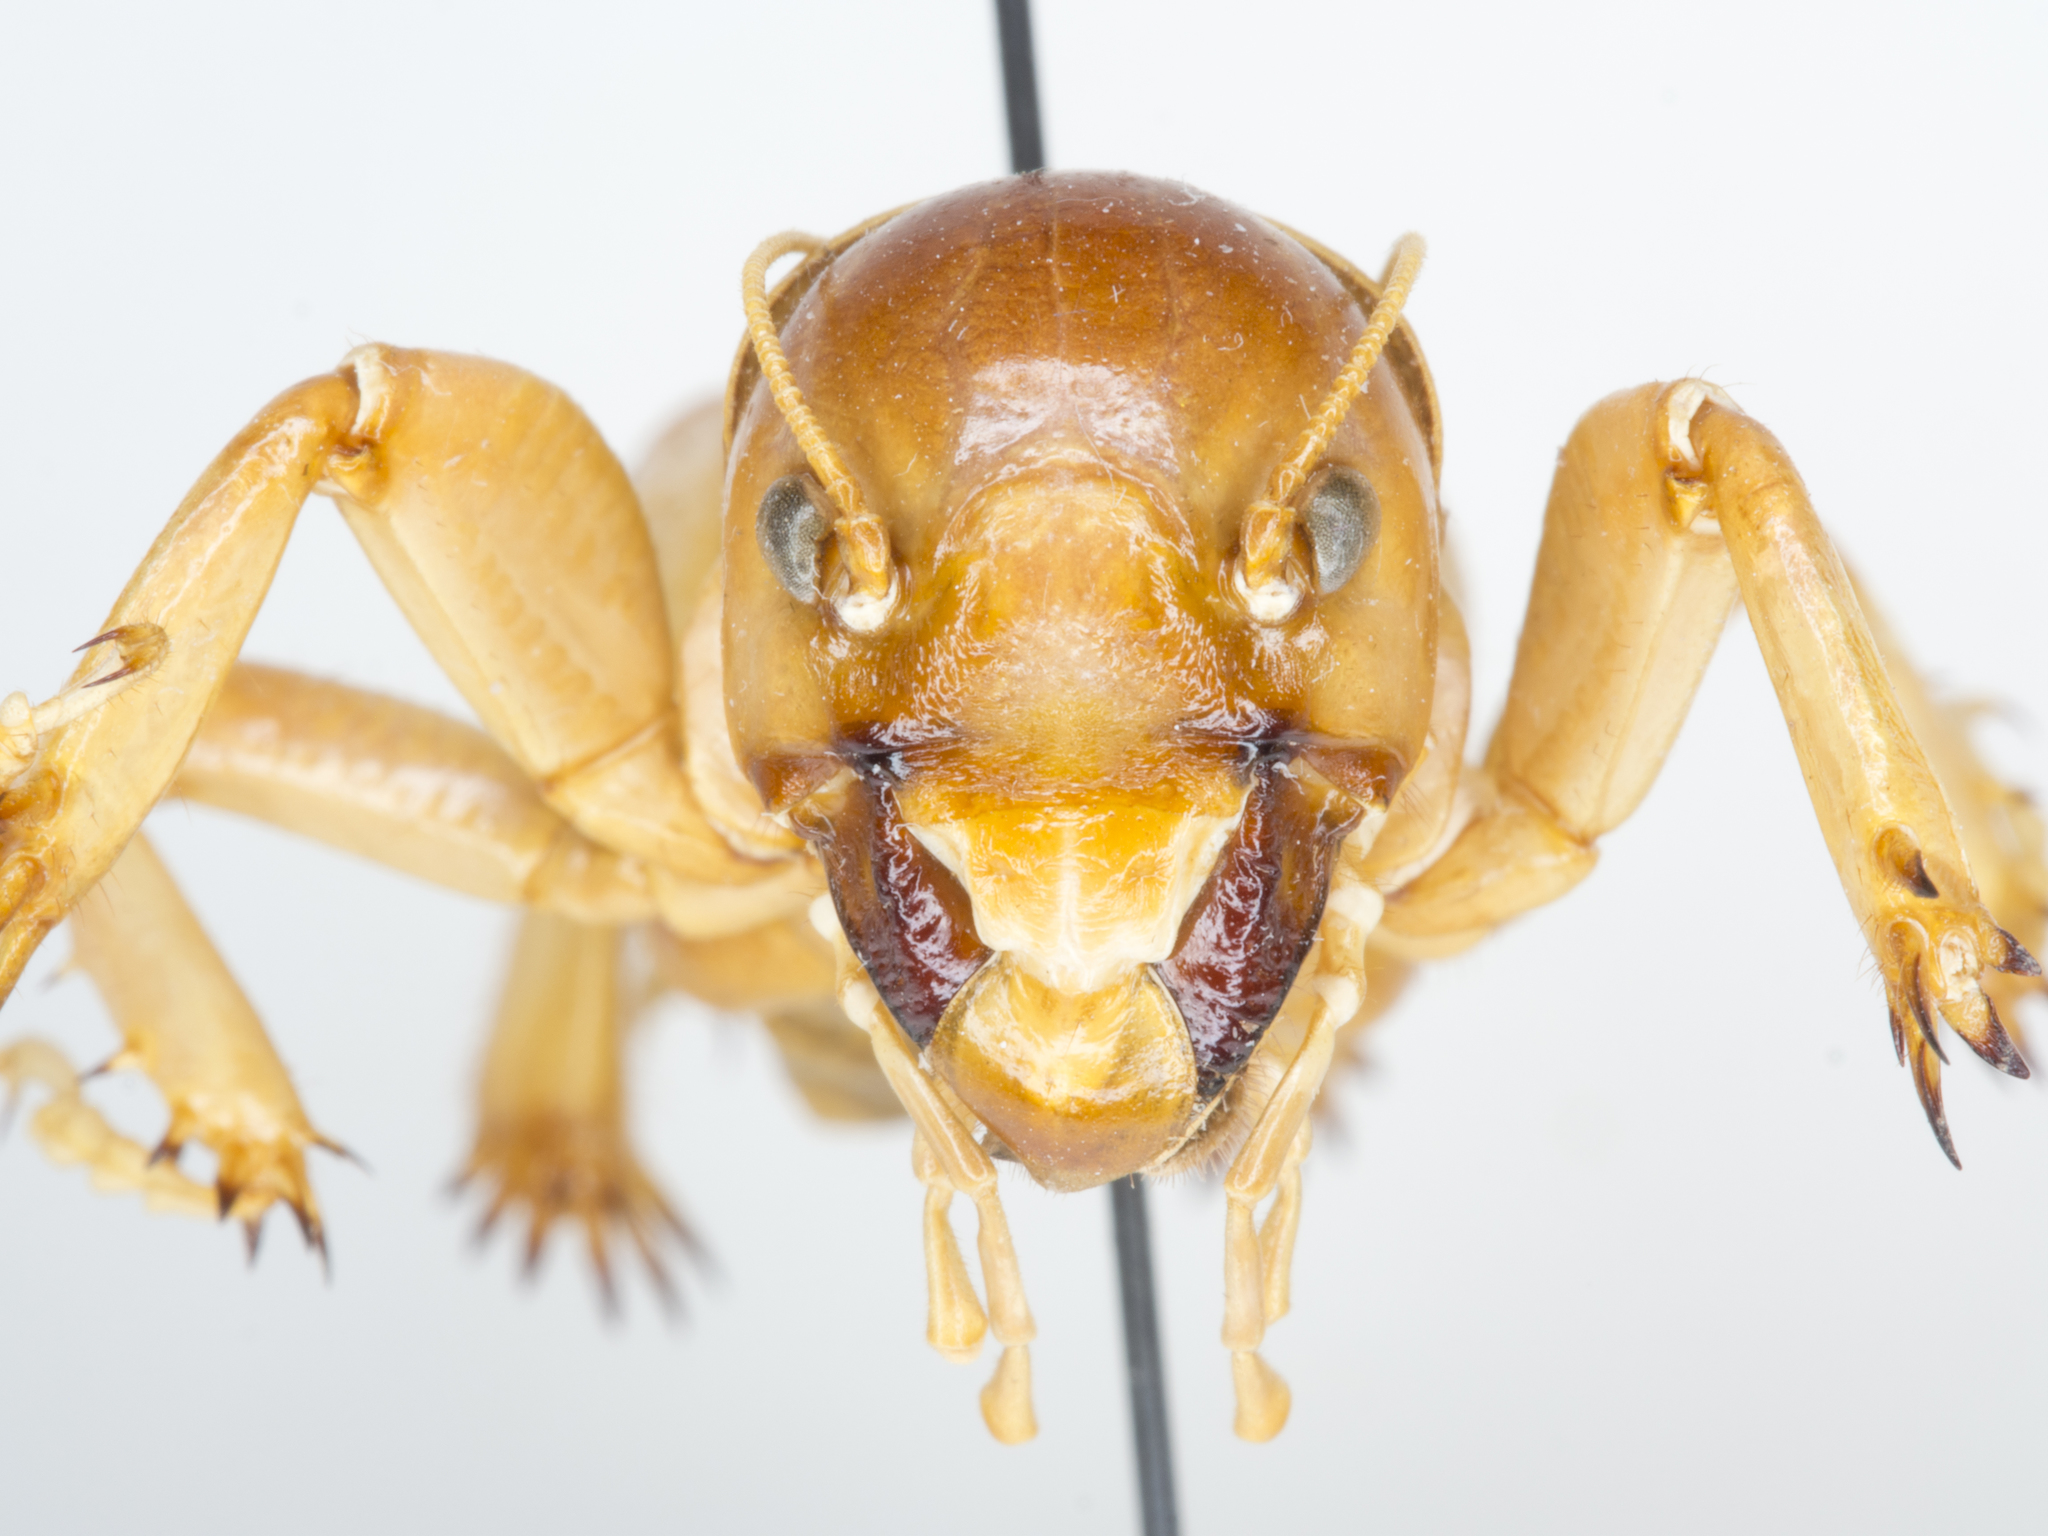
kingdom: Animalia
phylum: Arthropoda
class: Insecta
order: Orthoptera
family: Stenopelmatidae
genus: Ammopelmatus
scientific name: Ammopelmatus fuscus
